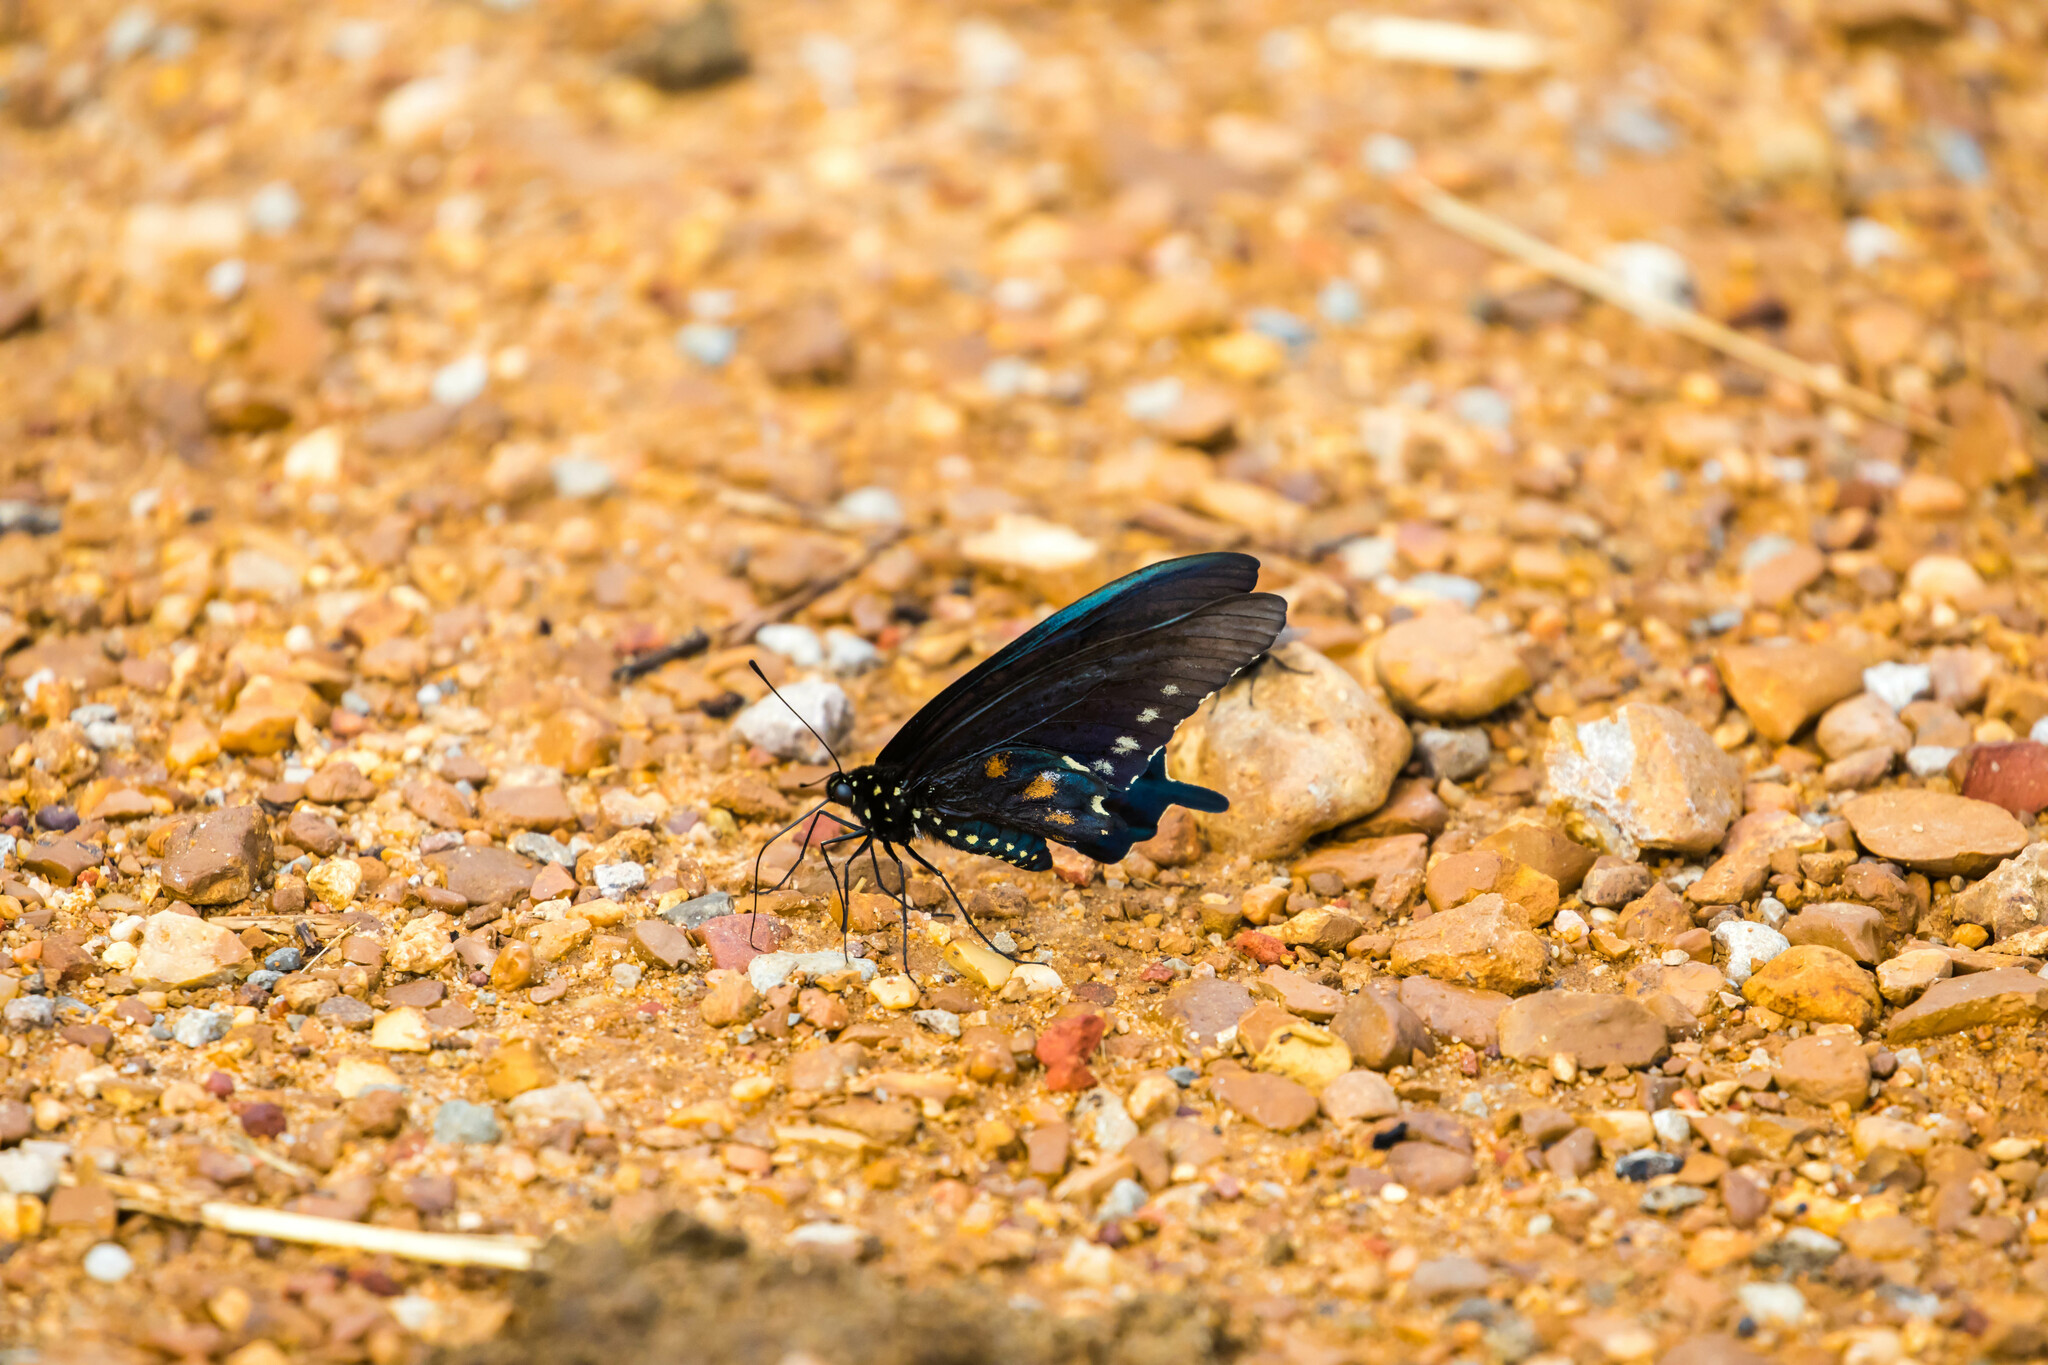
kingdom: Animalia
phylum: Arthropoda
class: Insecta
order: Lepidoptera
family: Papilionidae
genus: Battus
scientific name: Battus philenor
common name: Pipevine swallowtail
